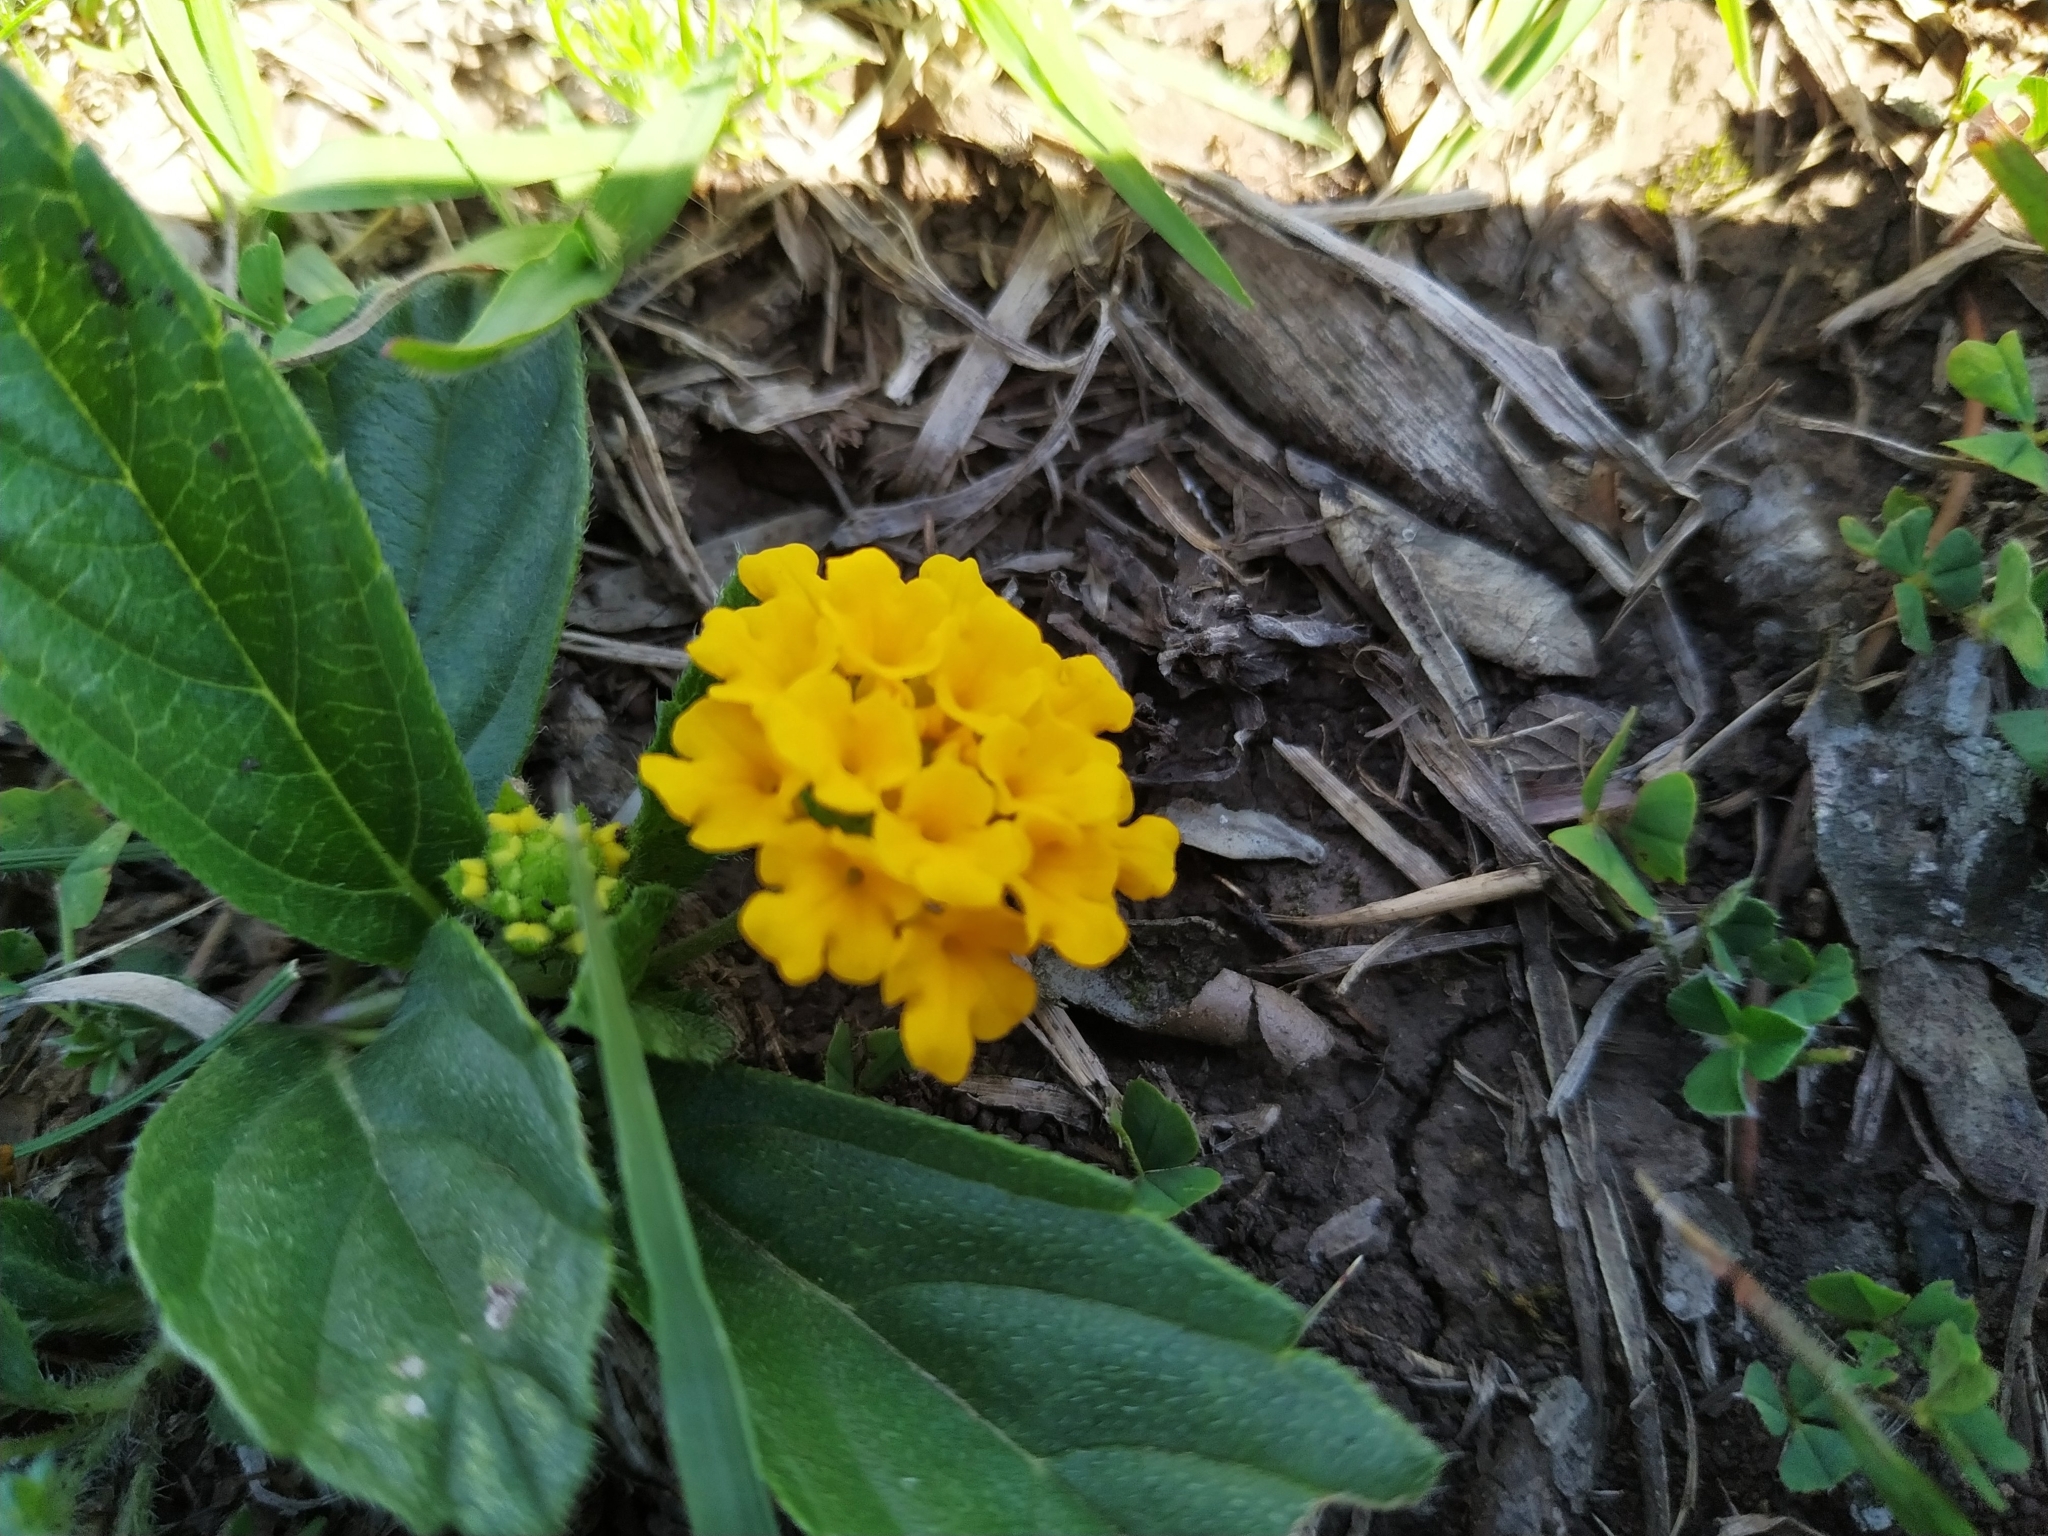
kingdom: Plantae
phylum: Tracheophyta
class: Magnoliopsida
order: Lamiales
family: Verbenaceae
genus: Lippia
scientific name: Lippia coarctata
